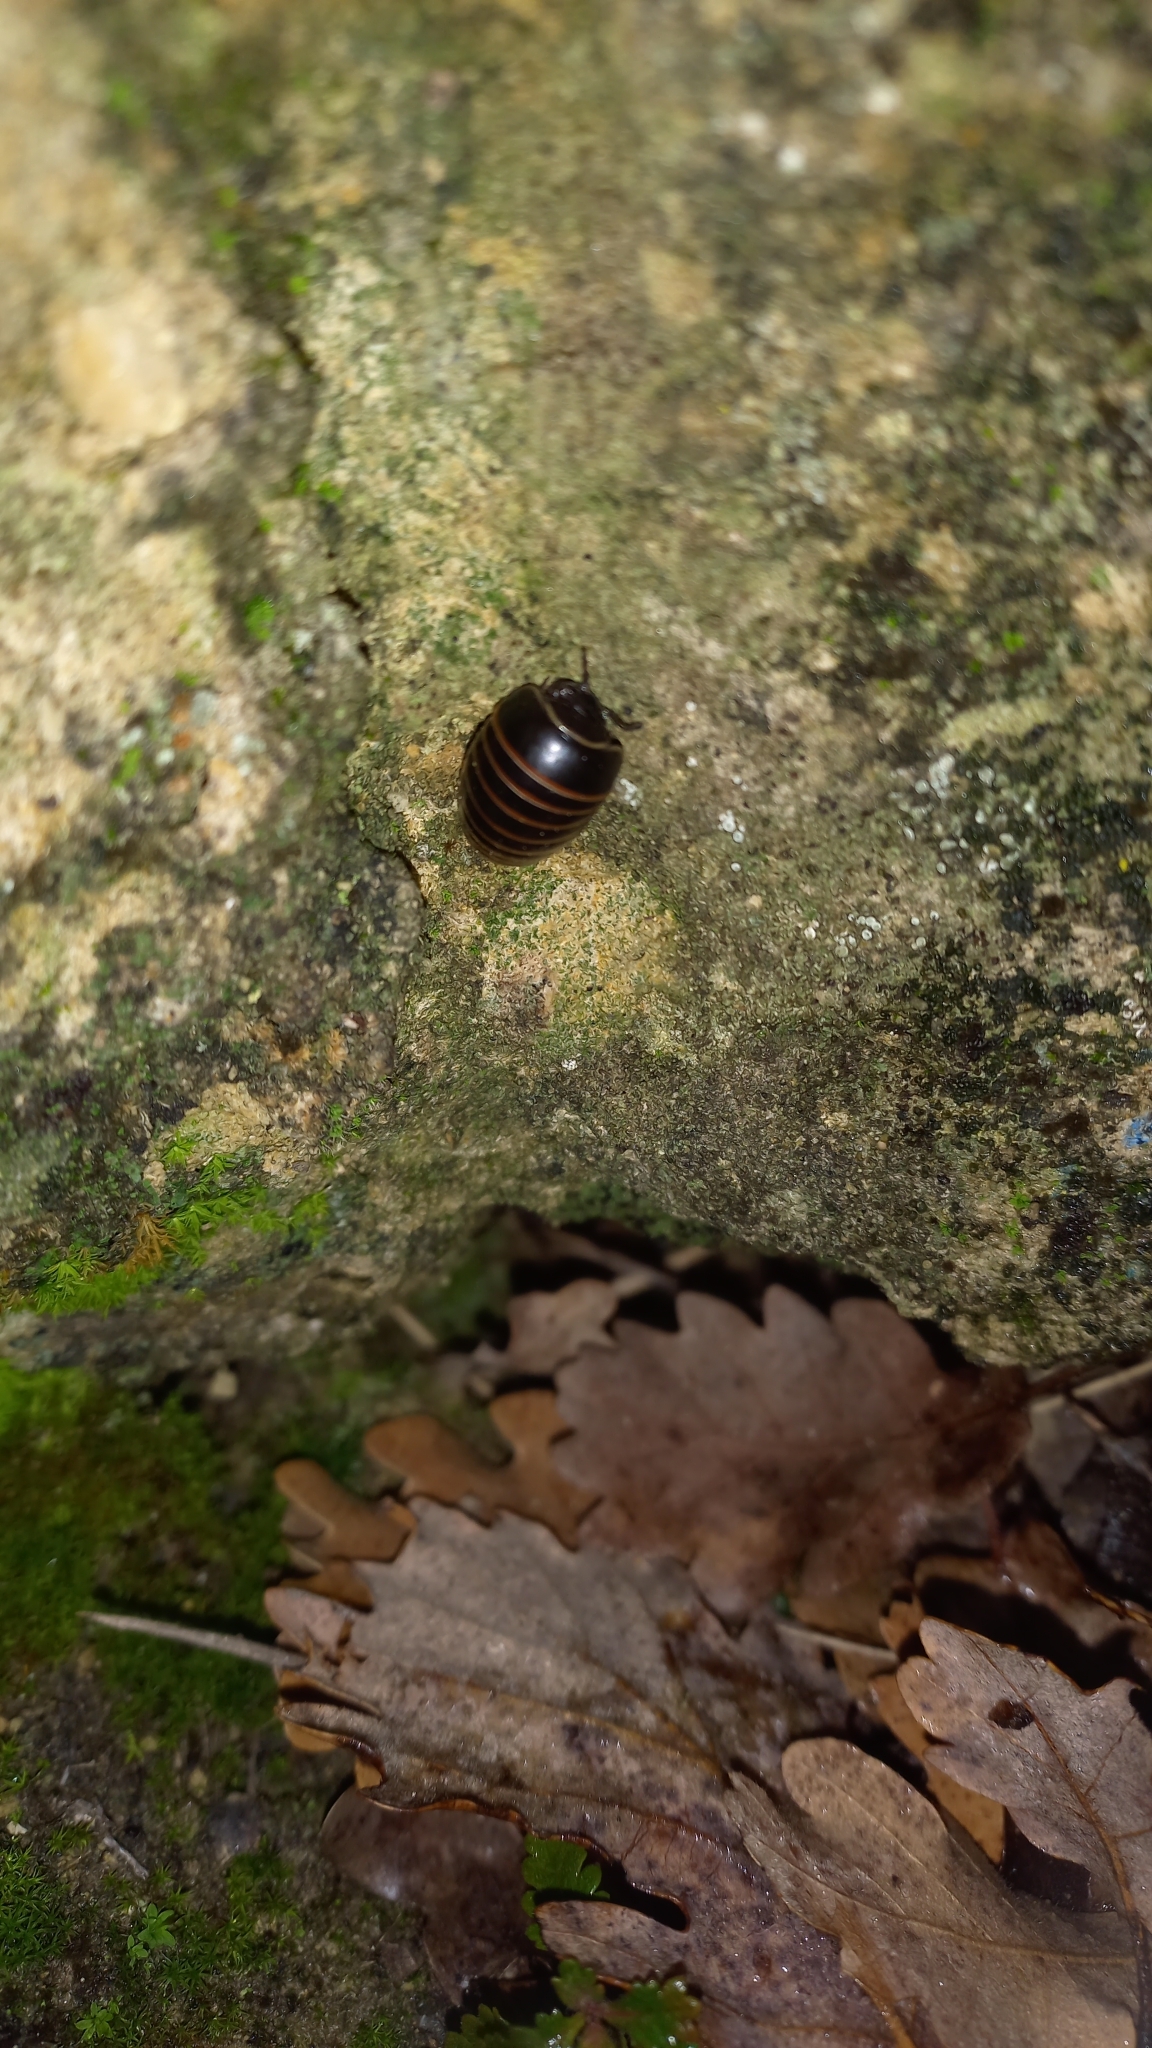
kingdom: Animalia
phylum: Arthropoda
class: Diplopoda
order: Glomerida
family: Glomeridae
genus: Glomeris
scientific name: Glomeris marginata
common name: Bordered pill millipede
